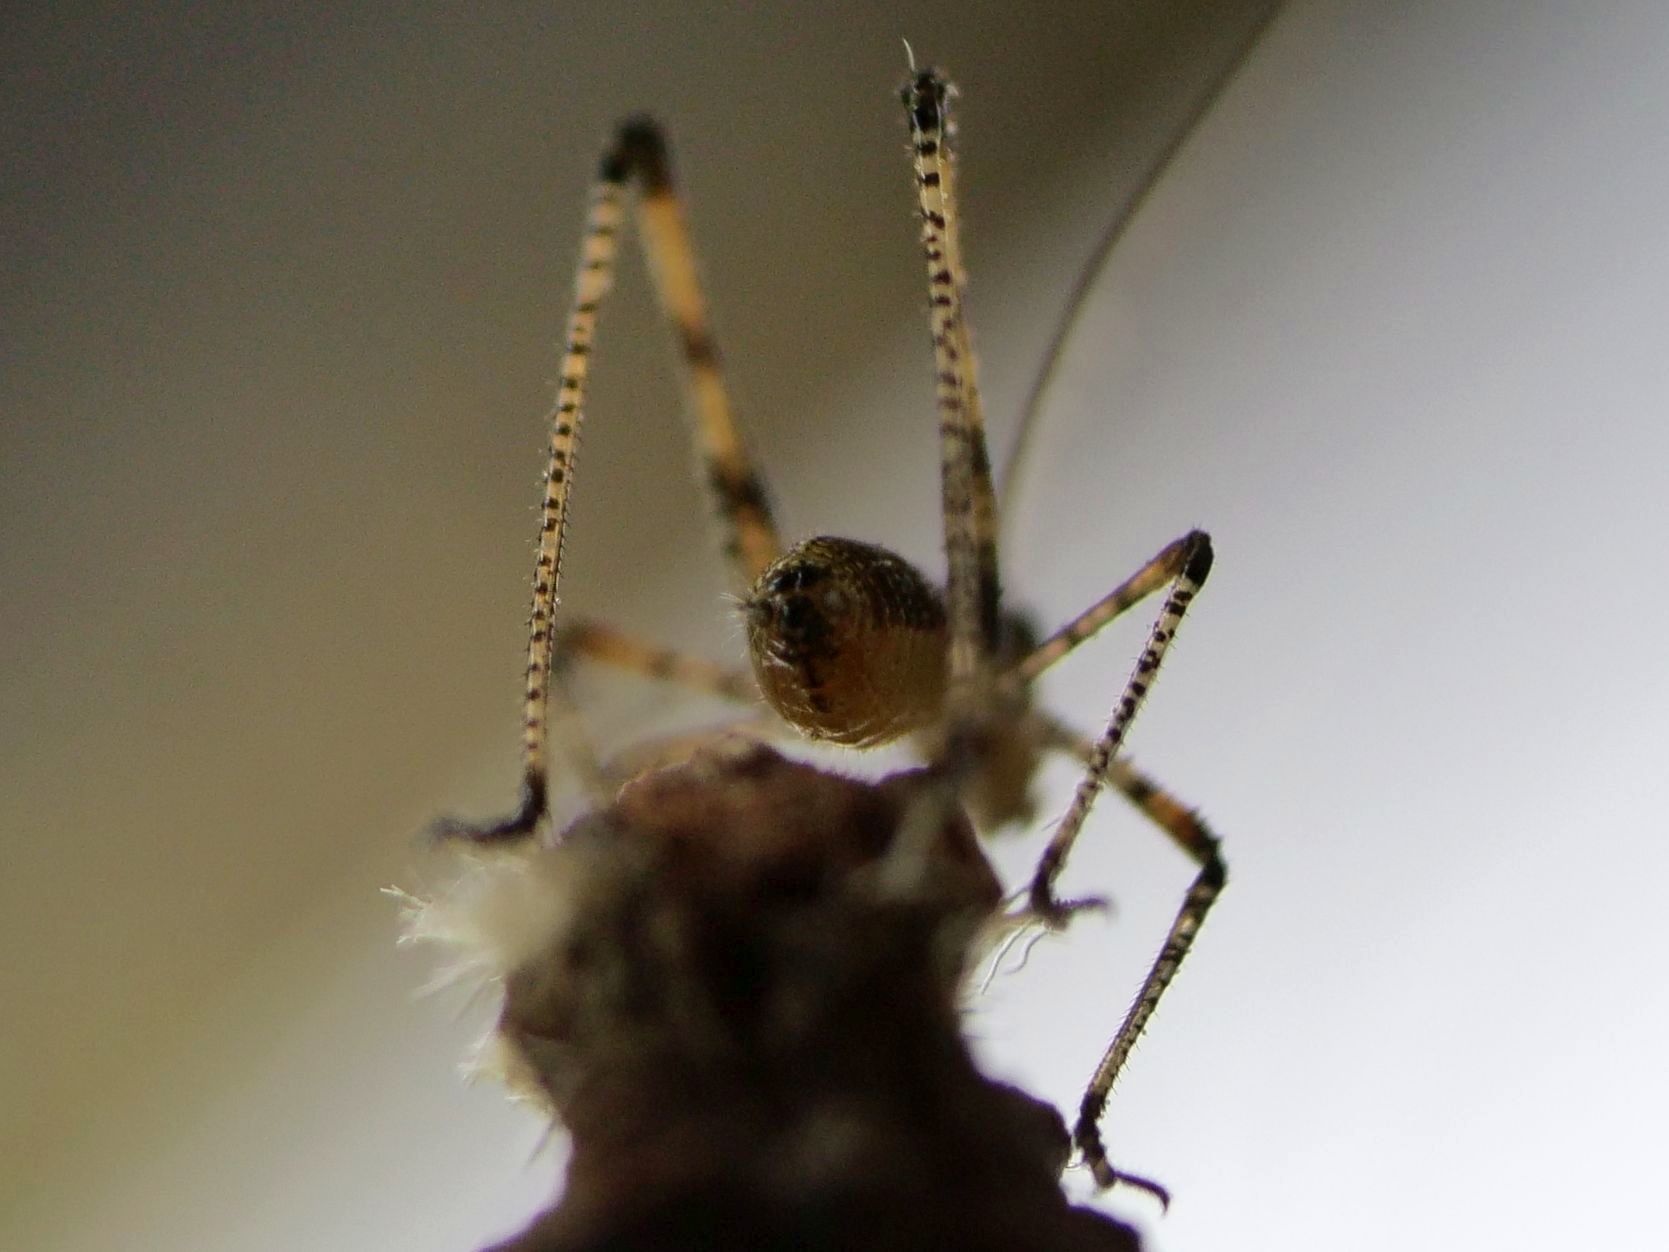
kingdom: Animalia
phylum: Arthropoda
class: Insecta
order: Orthoptera
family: Tettigoniidae
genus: Phaneroptera
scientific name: Phaneroptera nana
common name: Southern sickle bush-cricket
